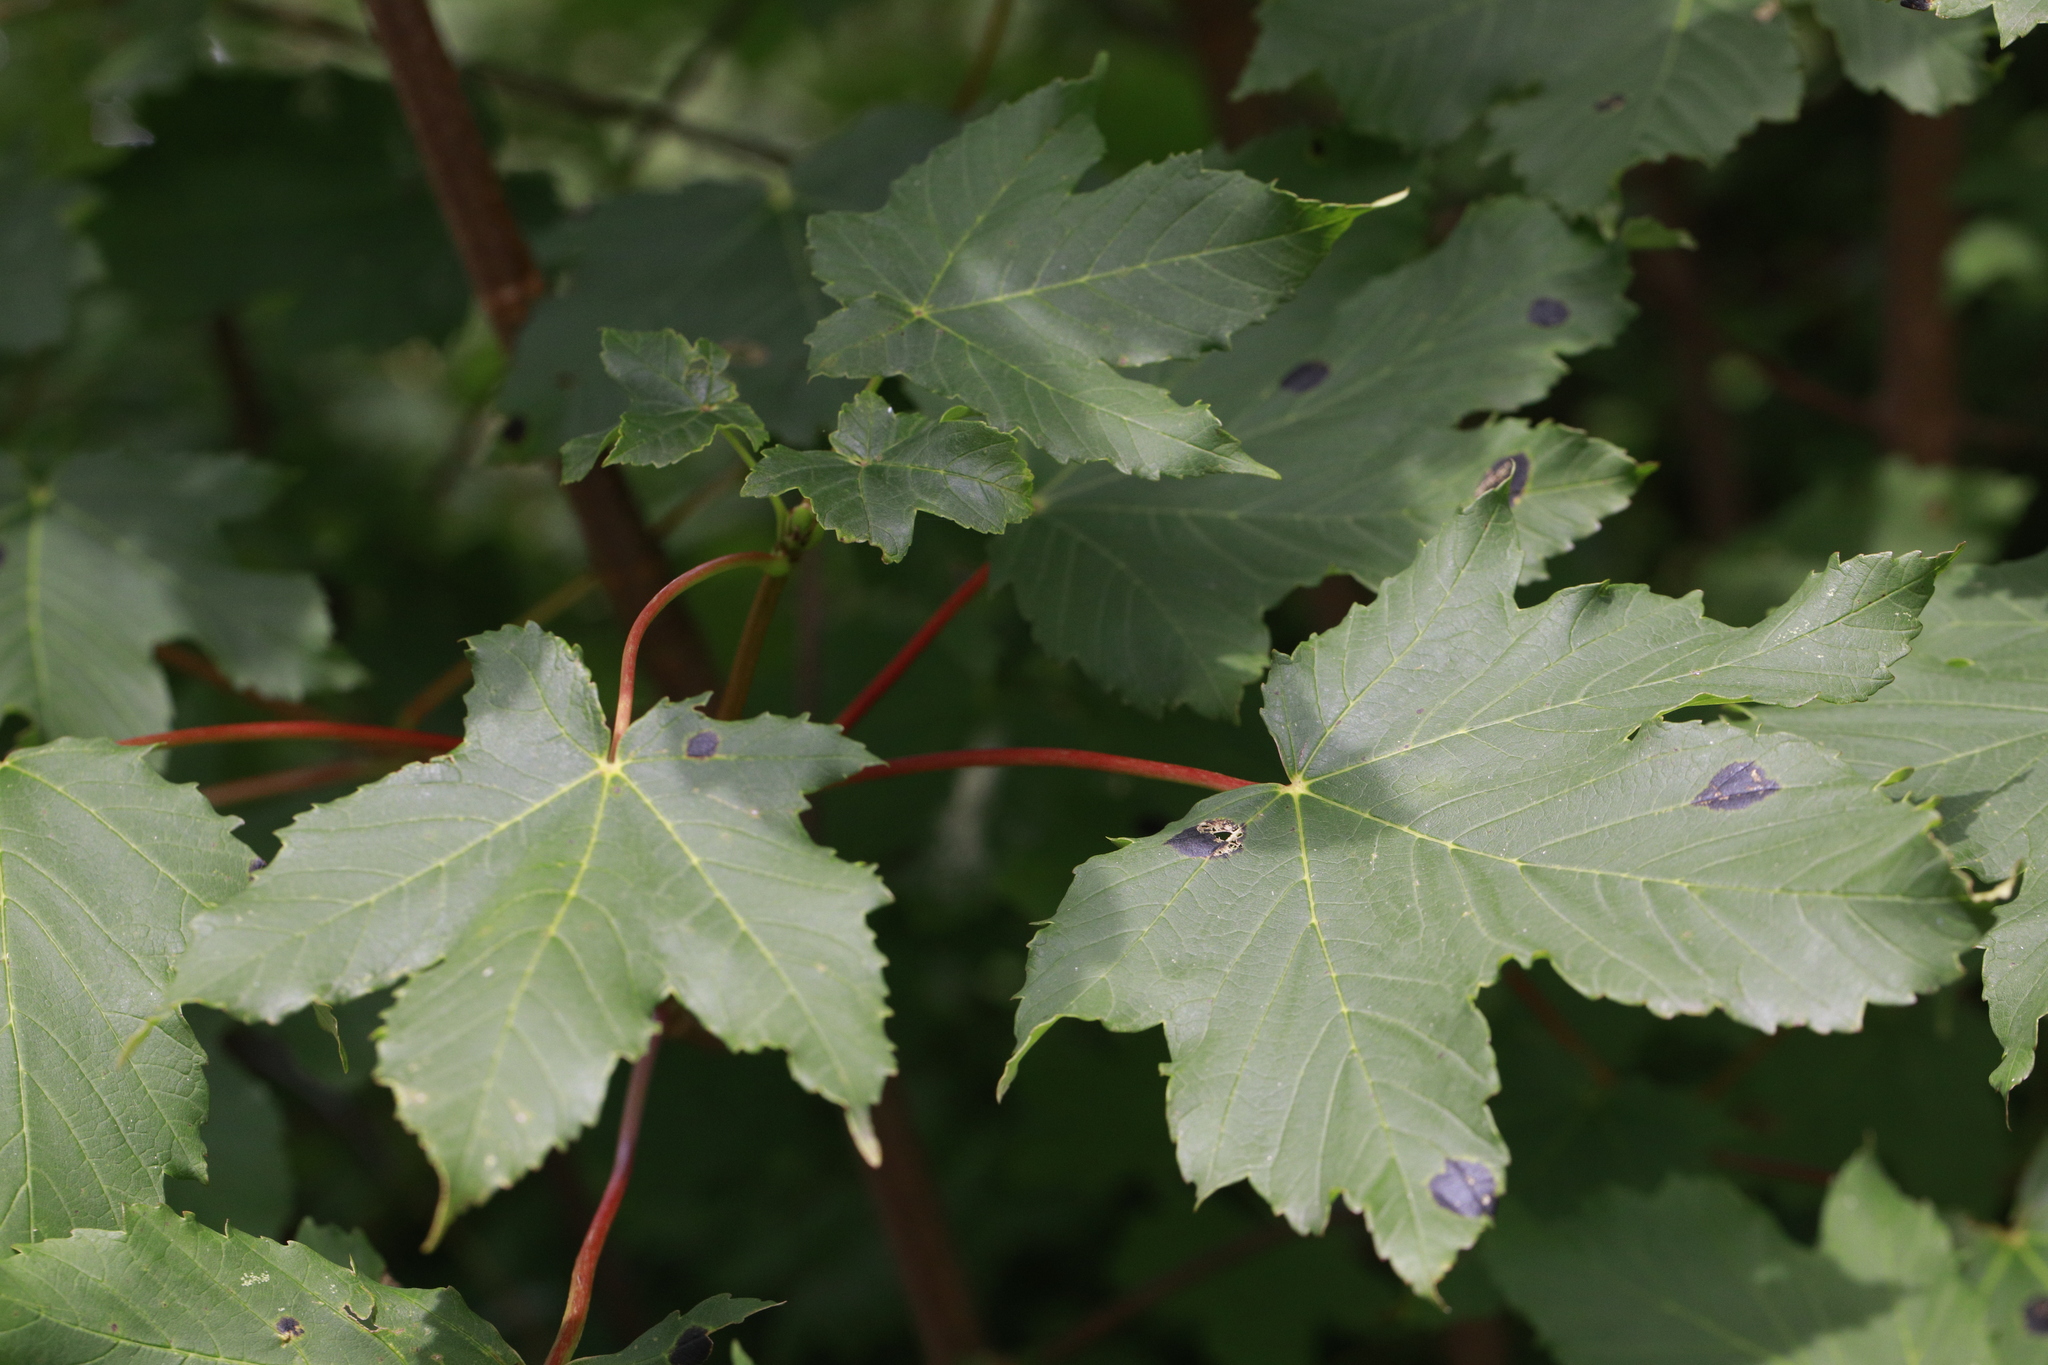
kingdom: Fungi
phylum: Ascomycota
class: Leotiomycetes
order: Rhytismatales
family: Rhytismataceae
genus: Rhytisma
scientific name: Rhytisma acerinum
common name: European tar spot
